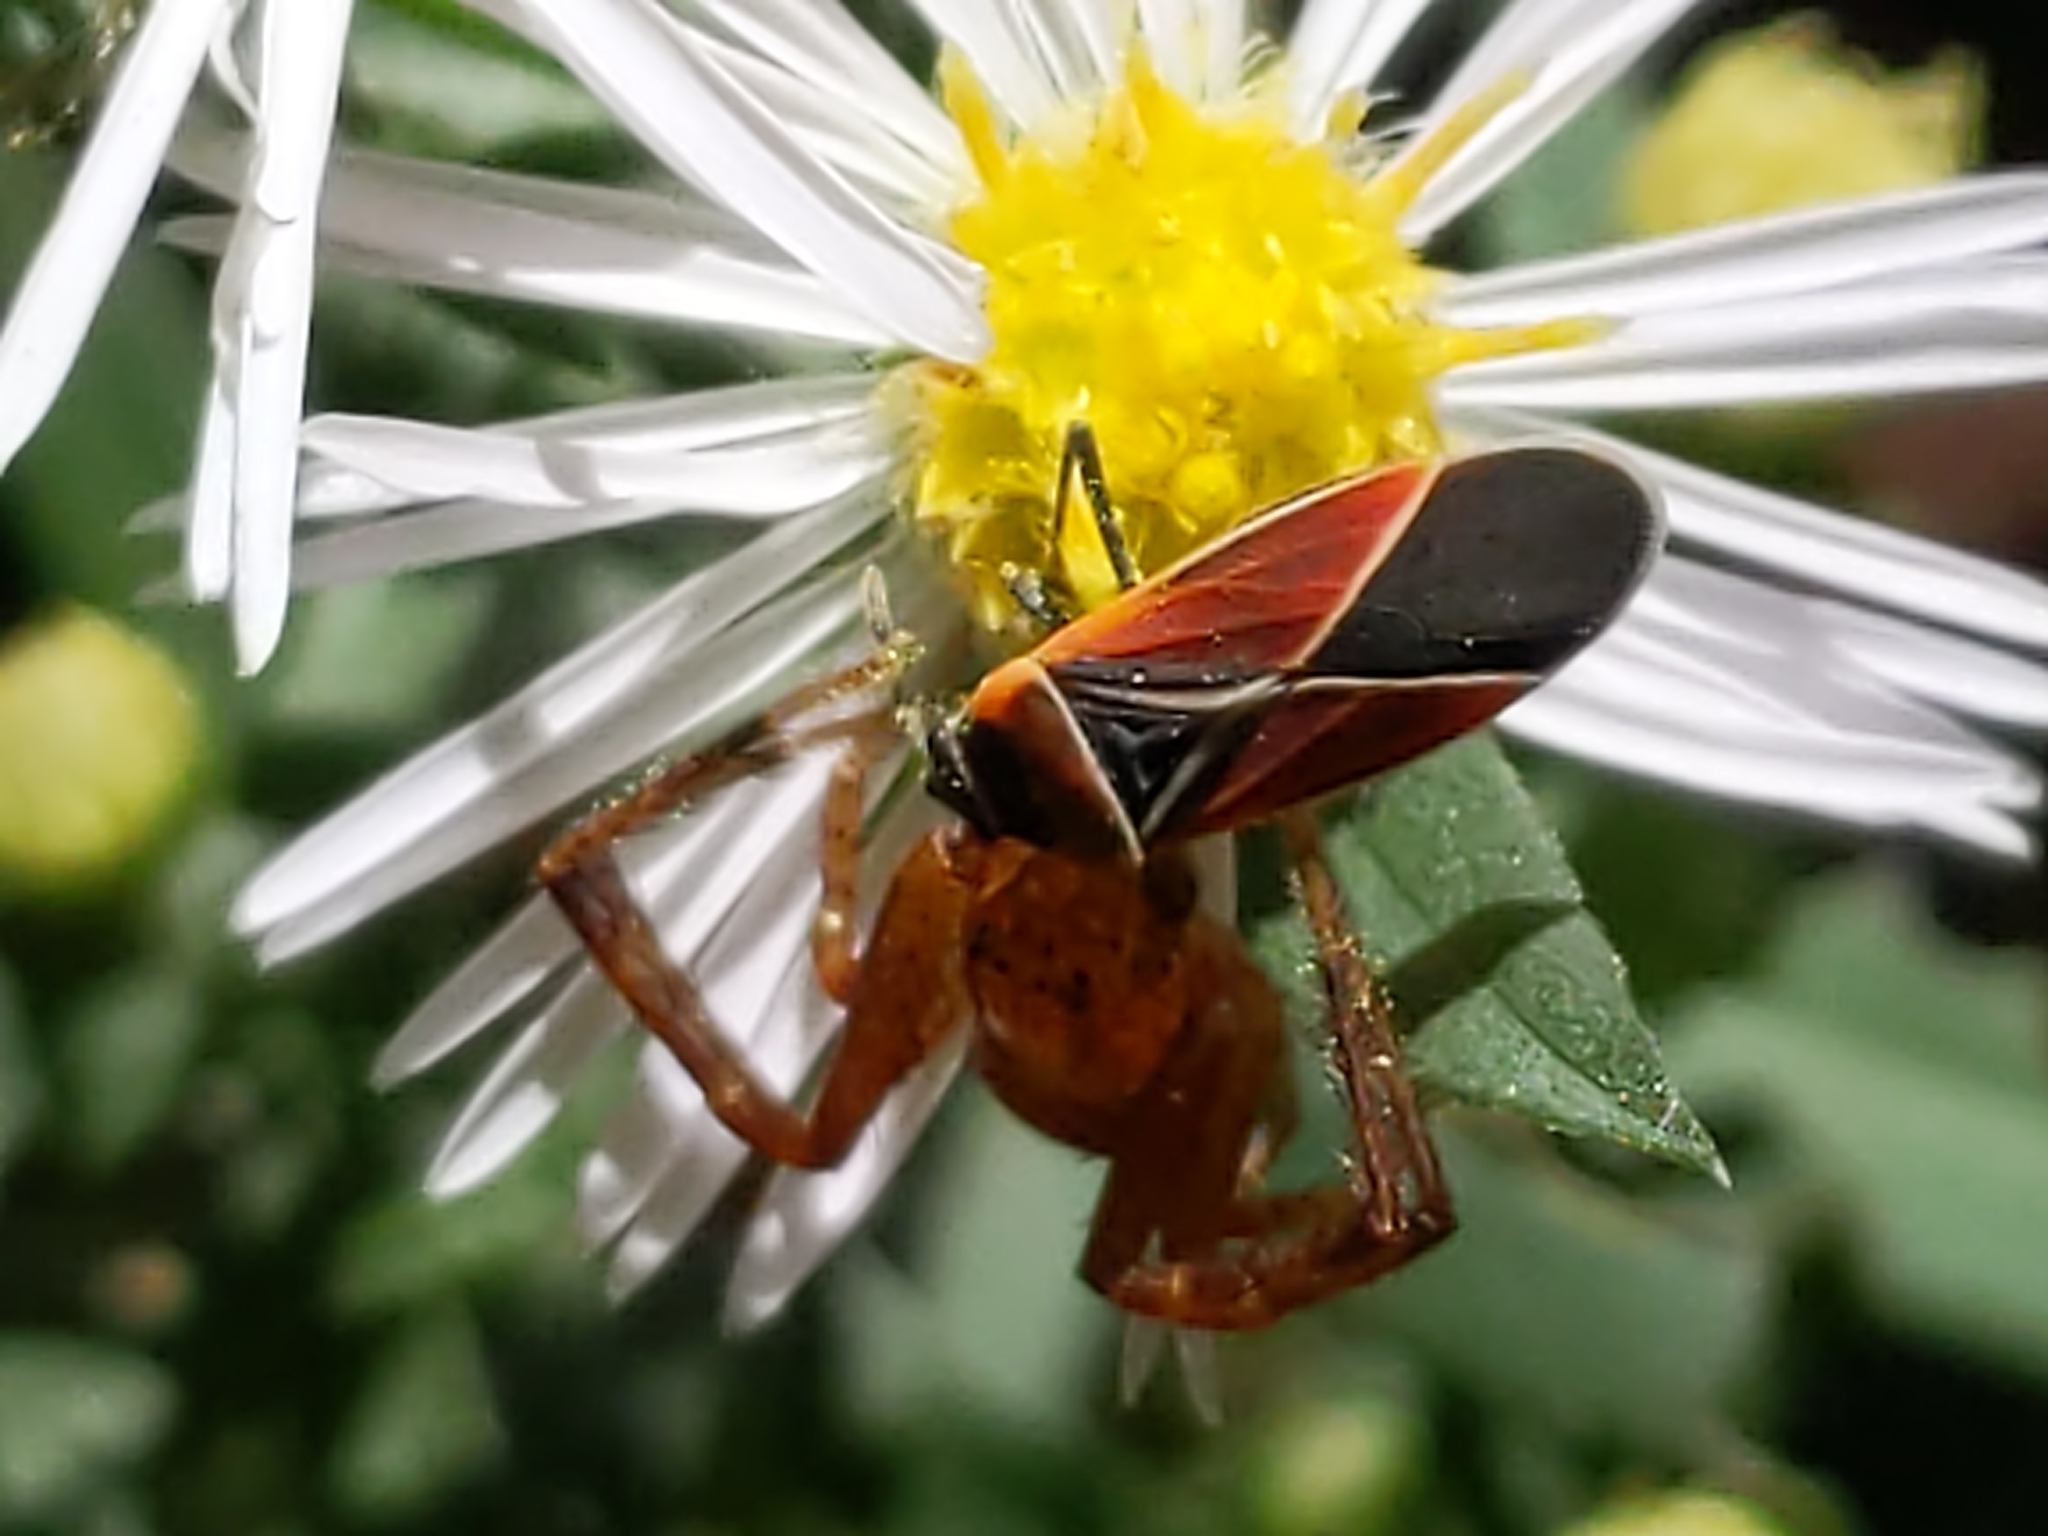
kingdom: Animalia
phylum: Arthropoda
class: Insecta
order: Hemiptera
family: Lygaeidae
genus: Neacoryphus
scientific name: Neacoryphus bicrucis
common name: Lygaeid bug
